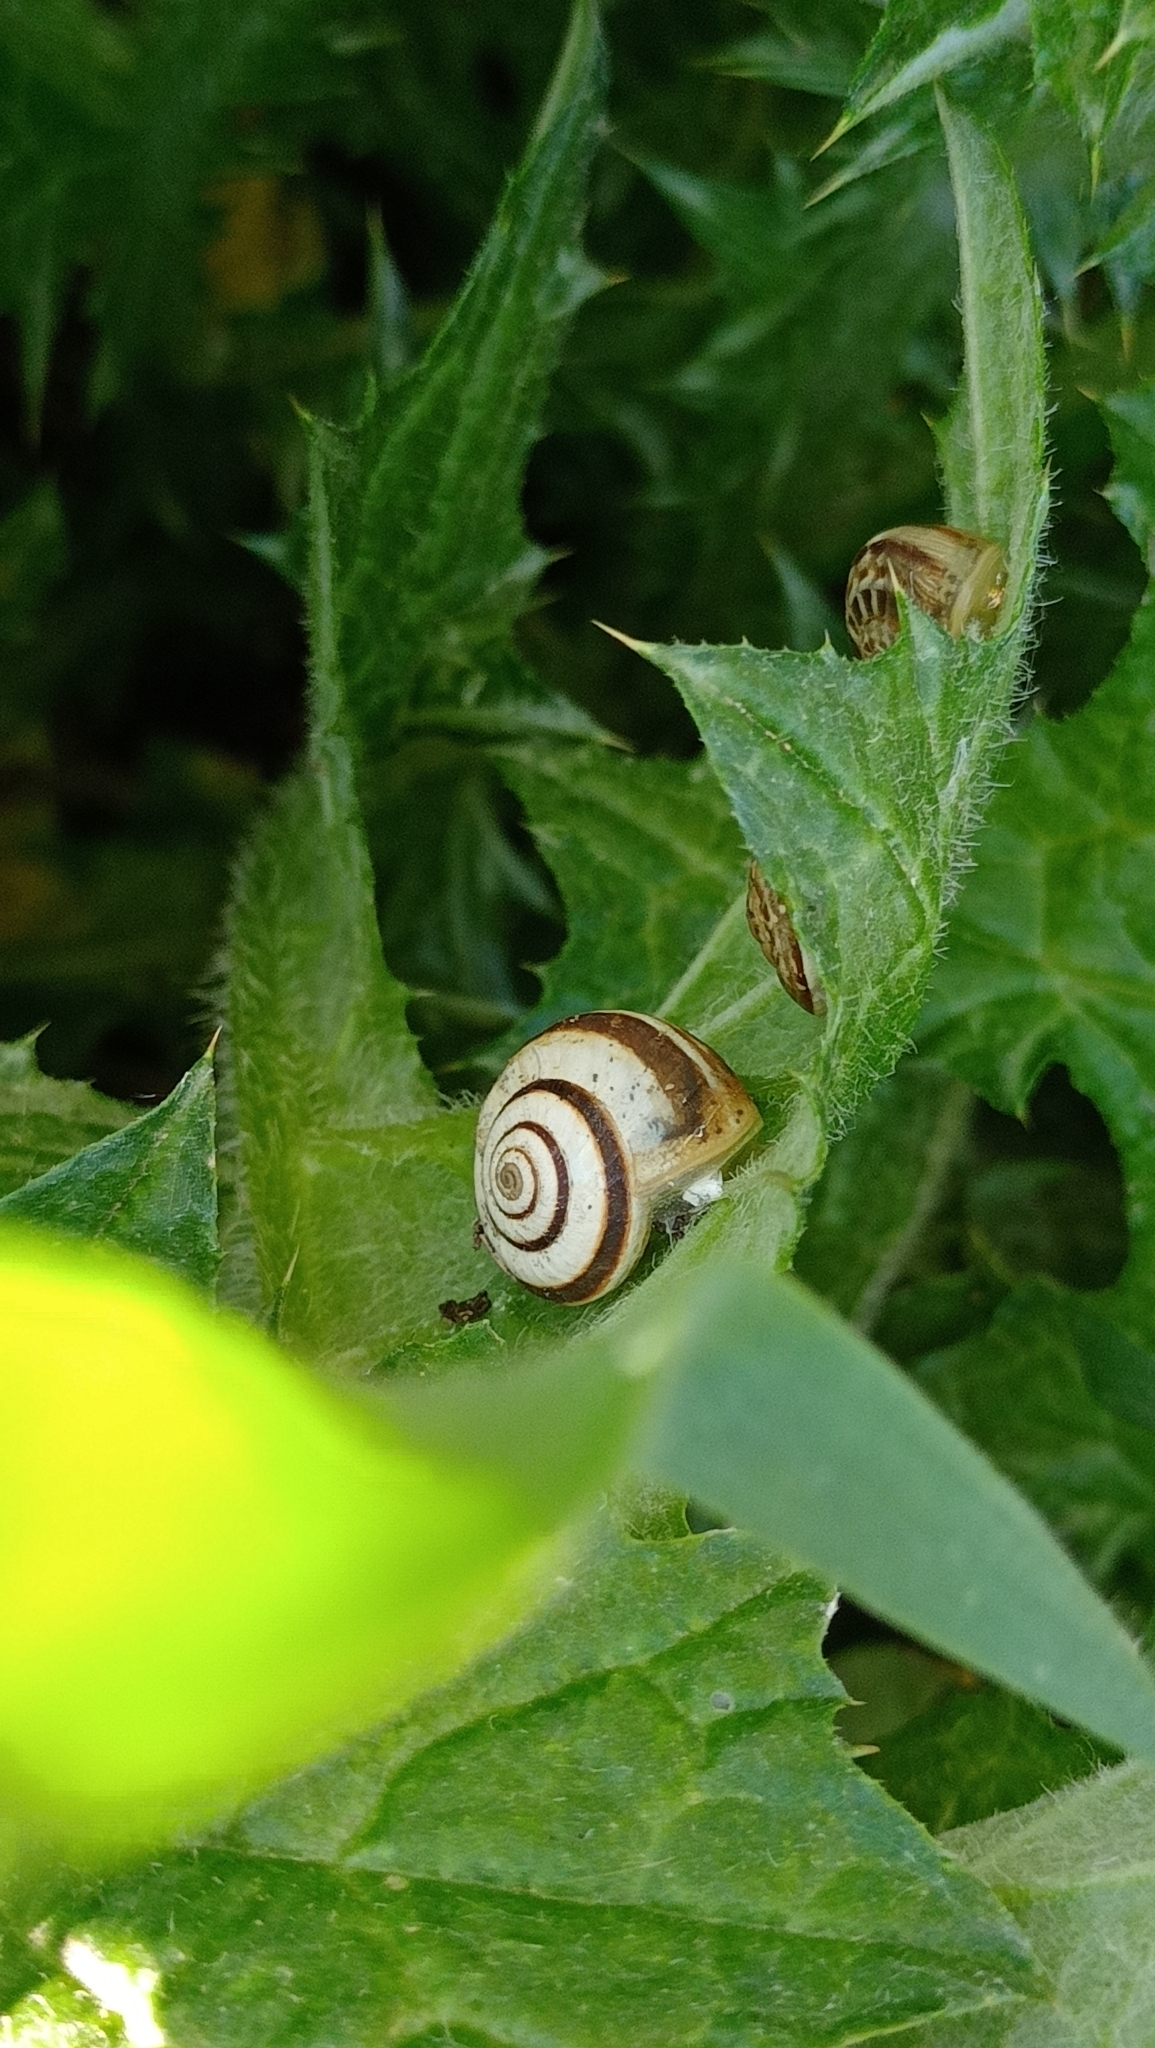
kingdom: Animalia
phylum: Mollusca
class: Gastropoda
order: Stylommatophora
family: Geomitridae
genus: Cernuella
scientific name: Cernuella virgata
